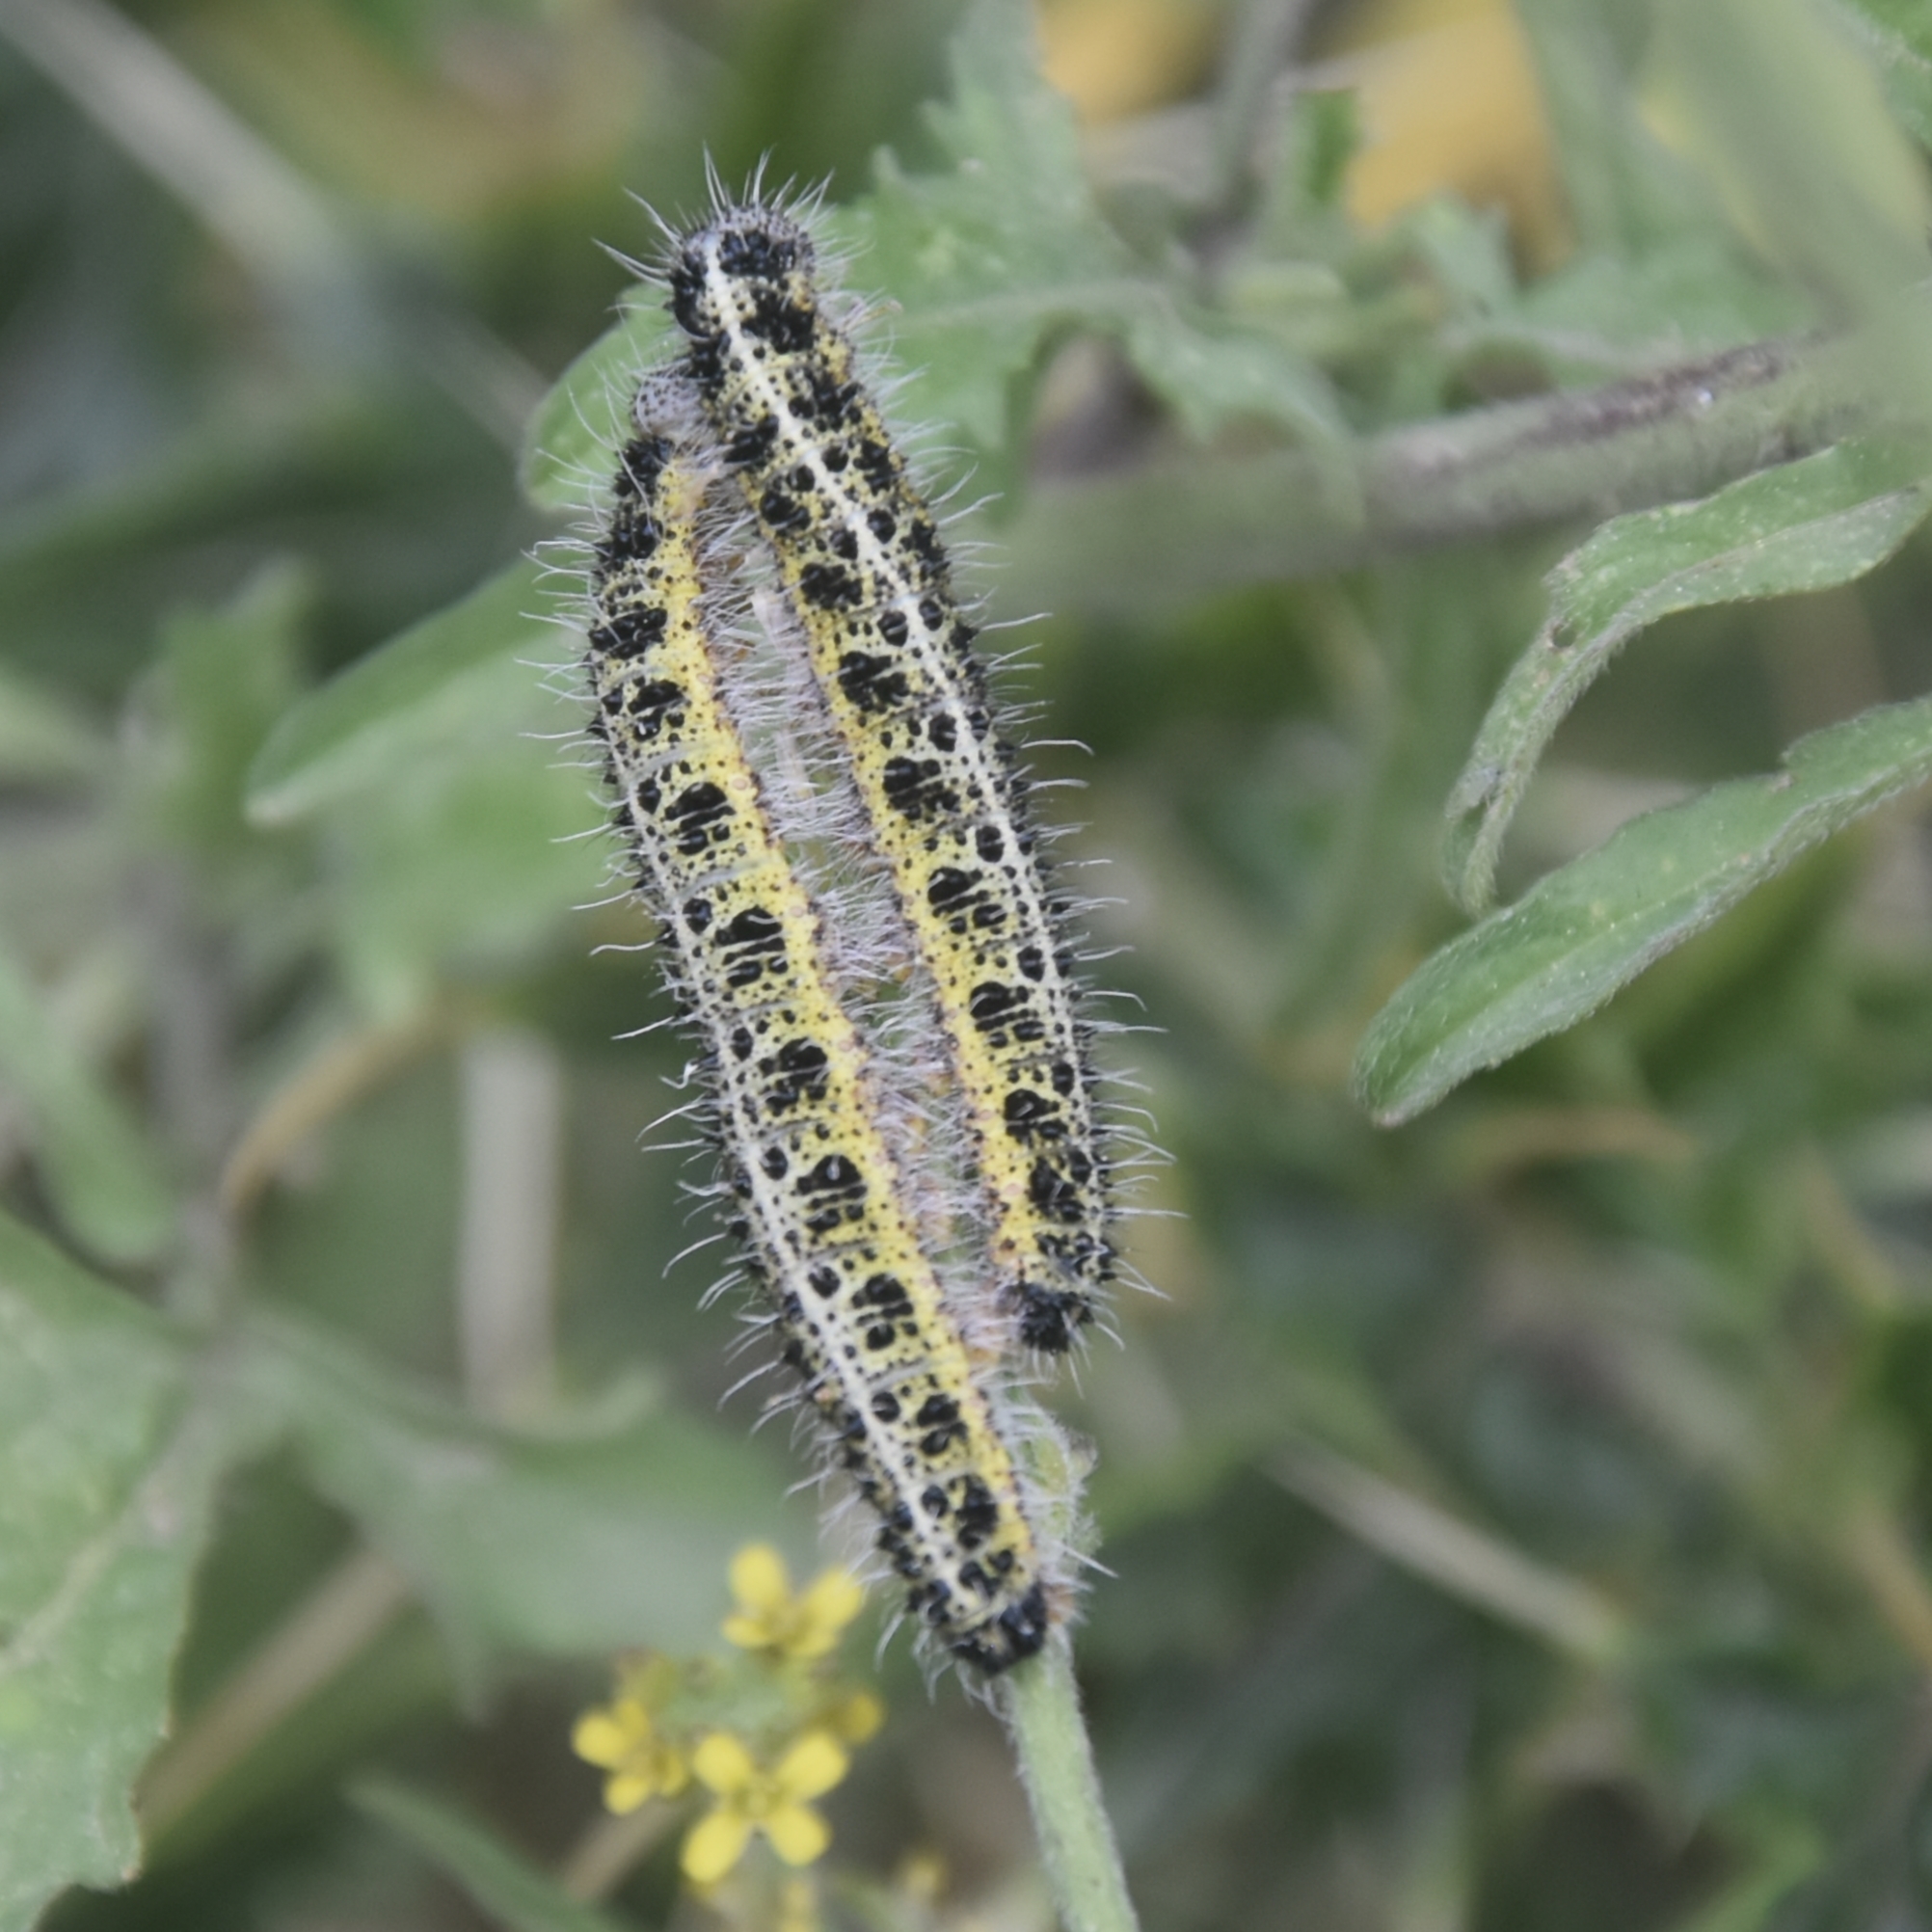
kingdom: Animalia
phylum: Arthropoda
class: Insecta
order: Lepidoptera
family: Pieridae
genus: Pieris
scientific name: Pieris brassicae
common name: Large white
